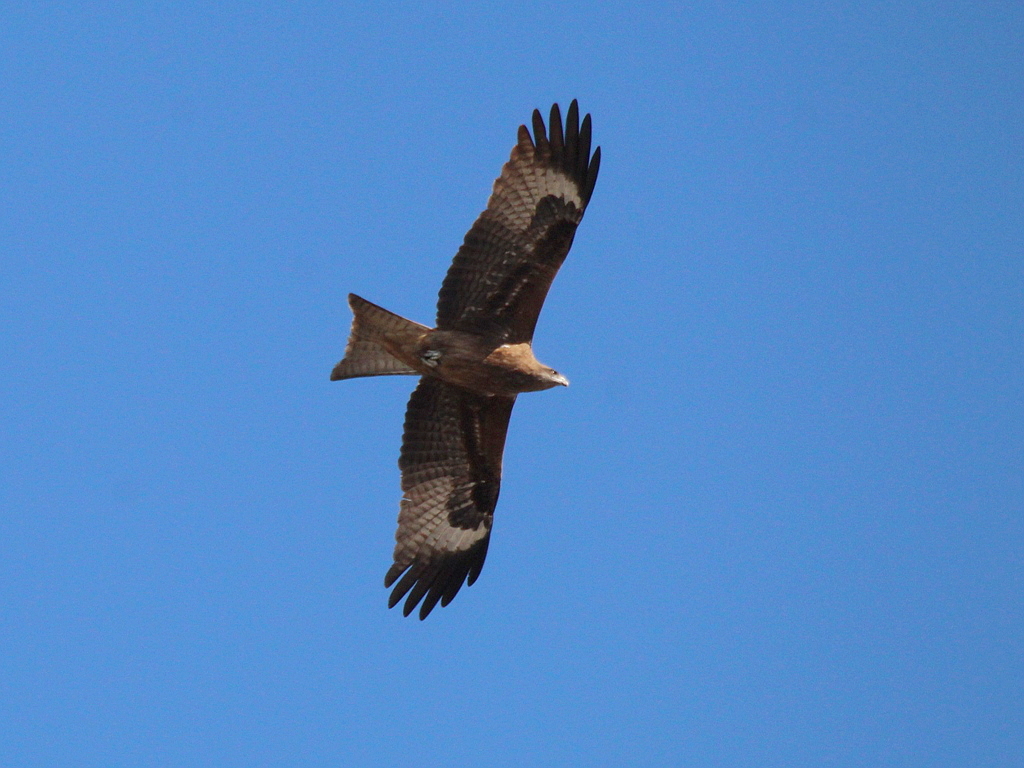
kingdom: Animalia
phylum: Chordata
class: Aves
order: Accipitriformes
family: Accipitridae
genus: Milvus
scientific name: Milvus migrans
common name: Black kite
